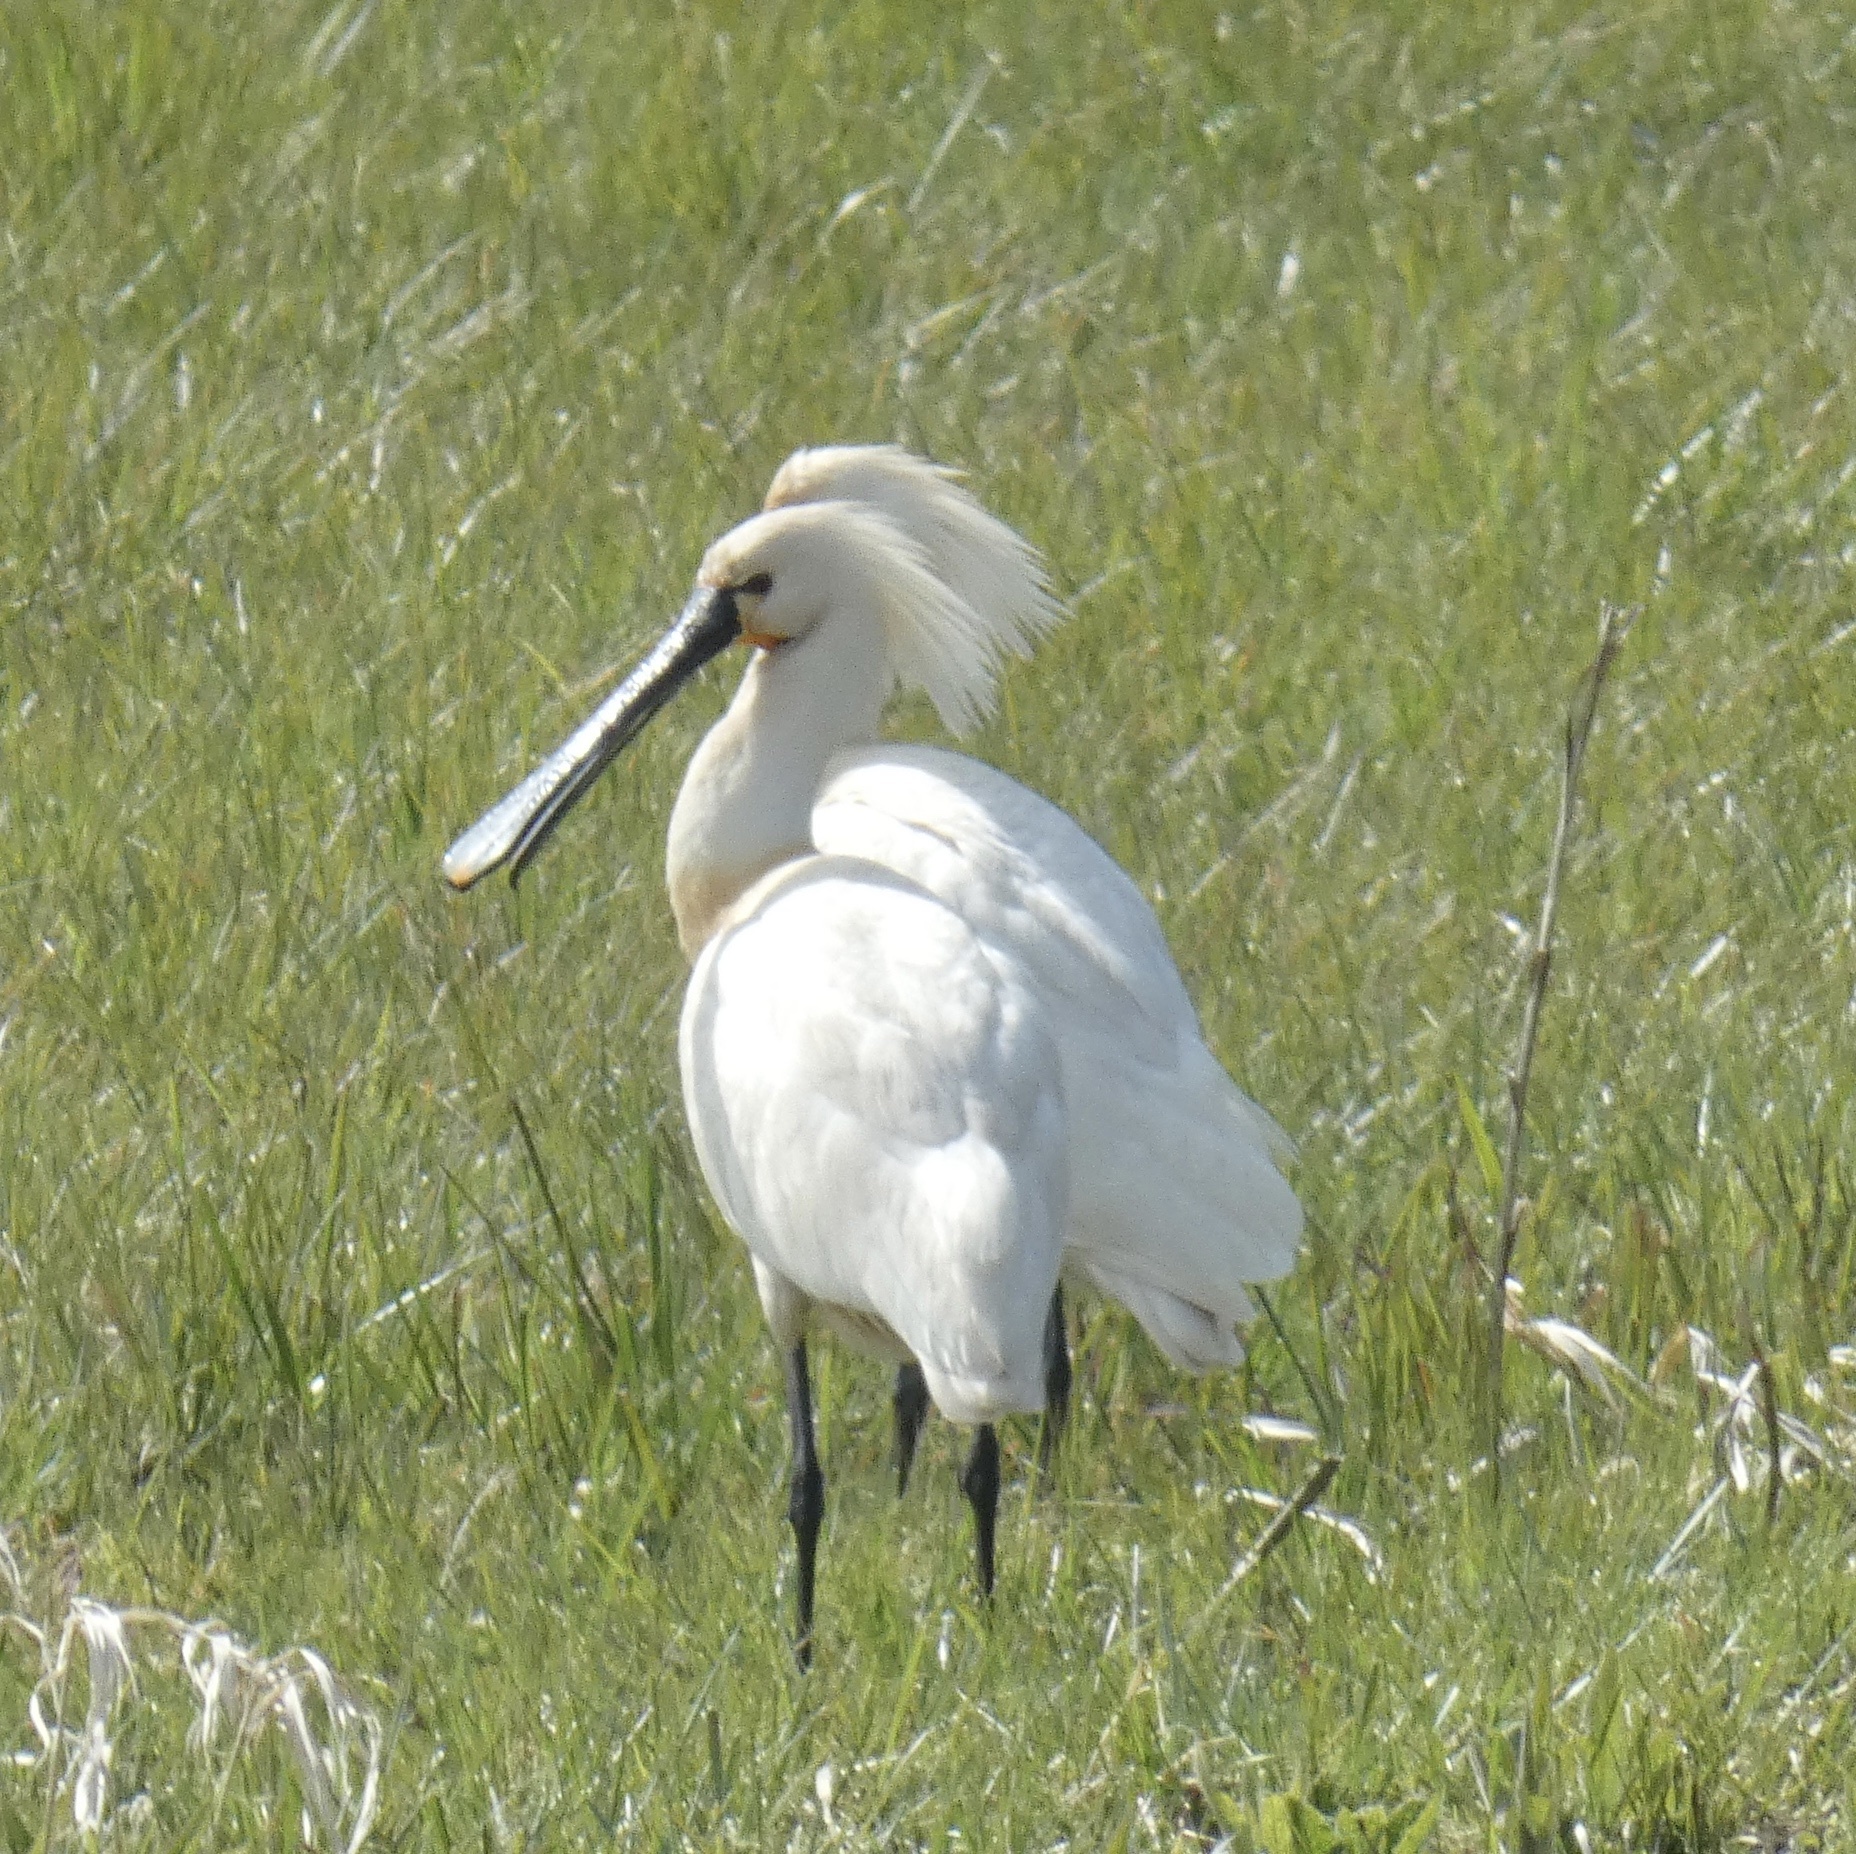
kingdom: Animalia
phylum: Chordata
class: Aves
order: Pelecaniformes
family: Threskiornithidae
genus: Platalea
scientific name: Platalea leucorodia
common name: Eurasian spoonbill
